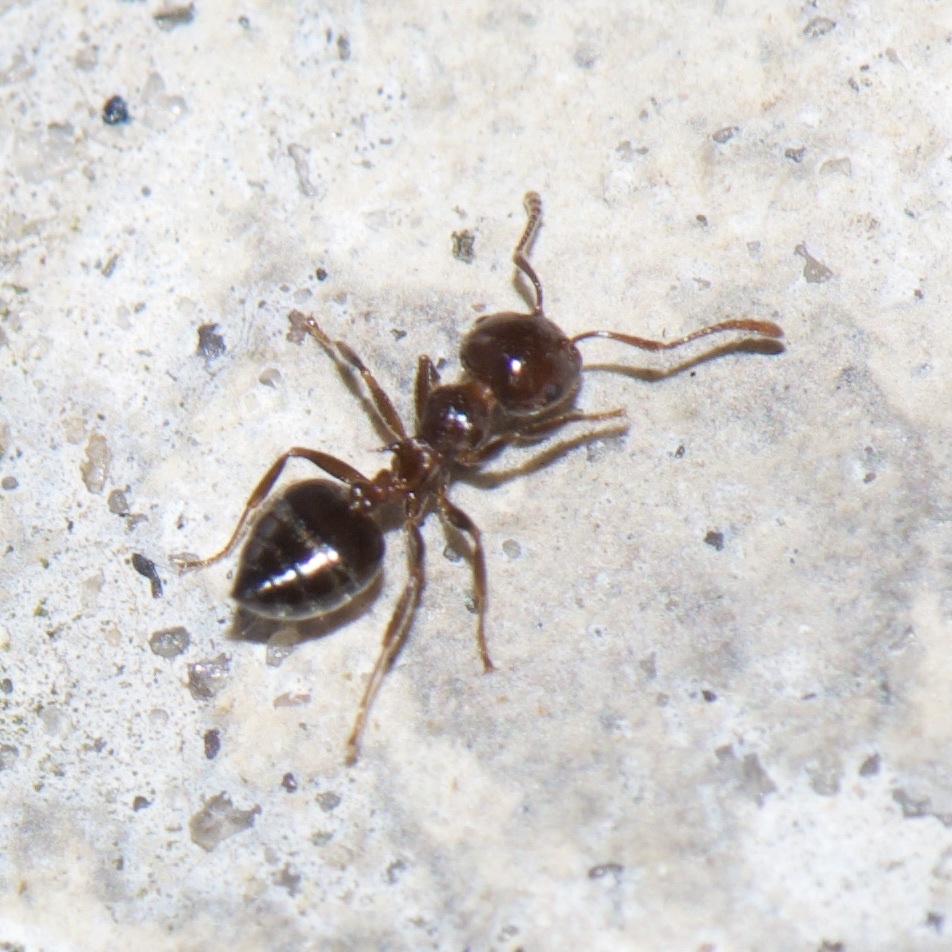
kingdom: Animalia
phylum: Arthropoda
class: Insecta
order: Hymenoptera
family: Formicidae
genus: Crematogaster
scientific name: Crematogaster laeviuscula
